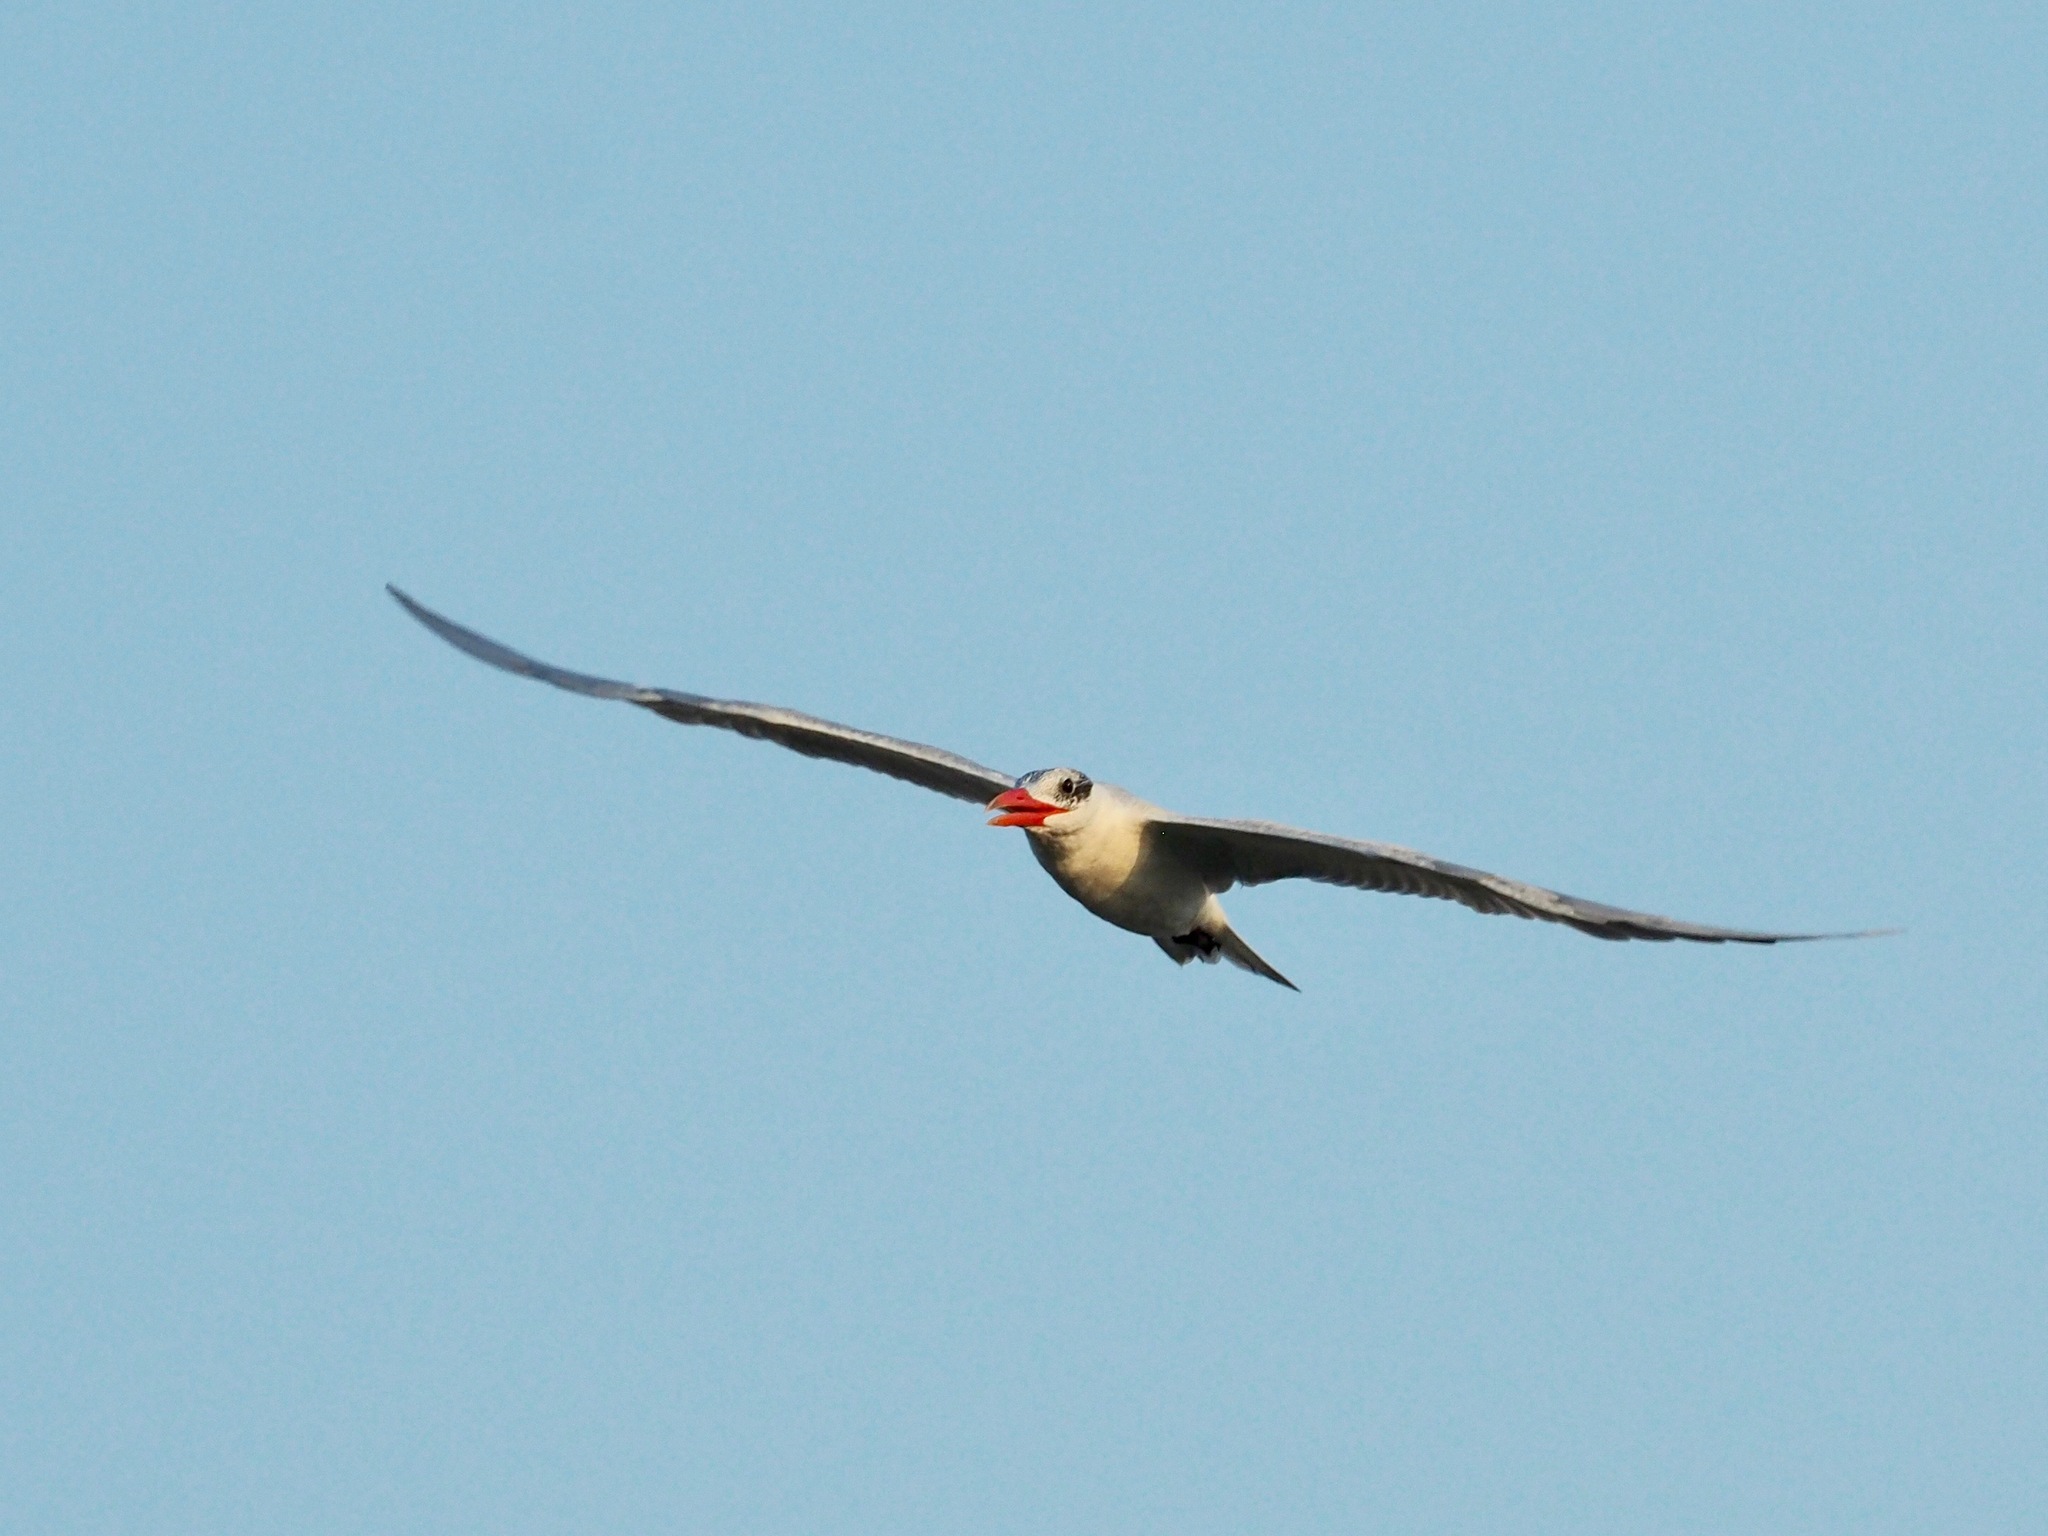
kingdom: Animalia
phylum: Chordata
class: Aves
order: Charadriiformes
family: Laridae
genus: Hydroprogne
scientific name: Hydroprogne caspia
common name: Caspian tern
